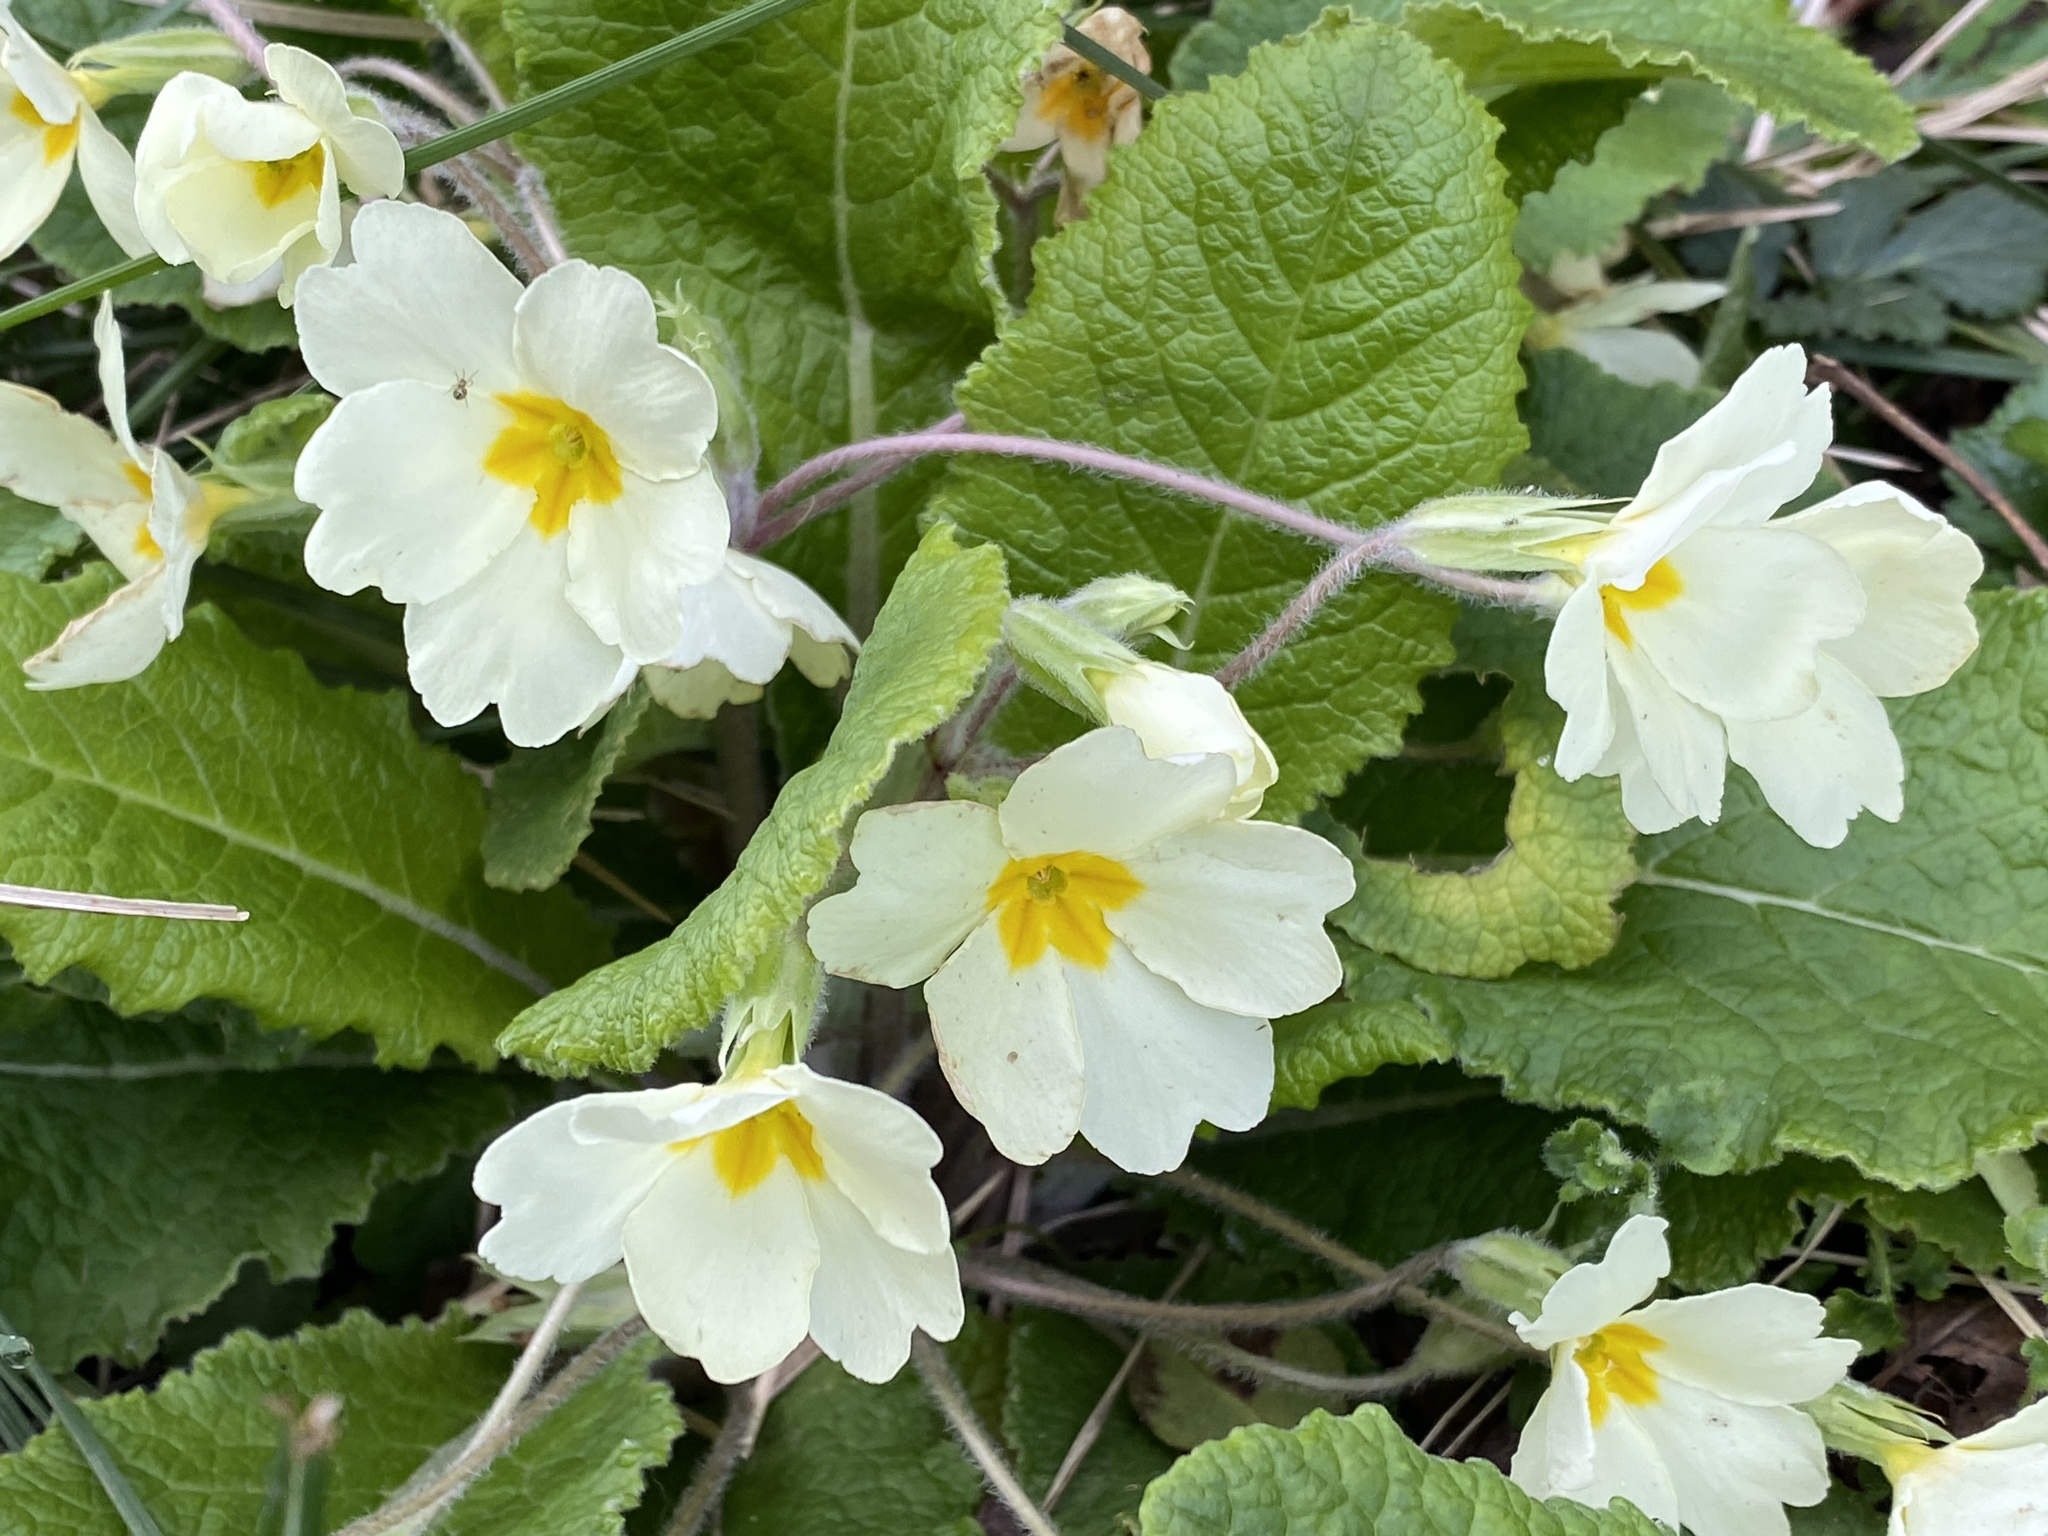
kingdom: Plantae
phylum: Tracheophyta
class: Magnoliopsida
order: Ericales
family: Primulaceae
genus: Primula
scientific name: Primula vulgaris
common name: Primrose
